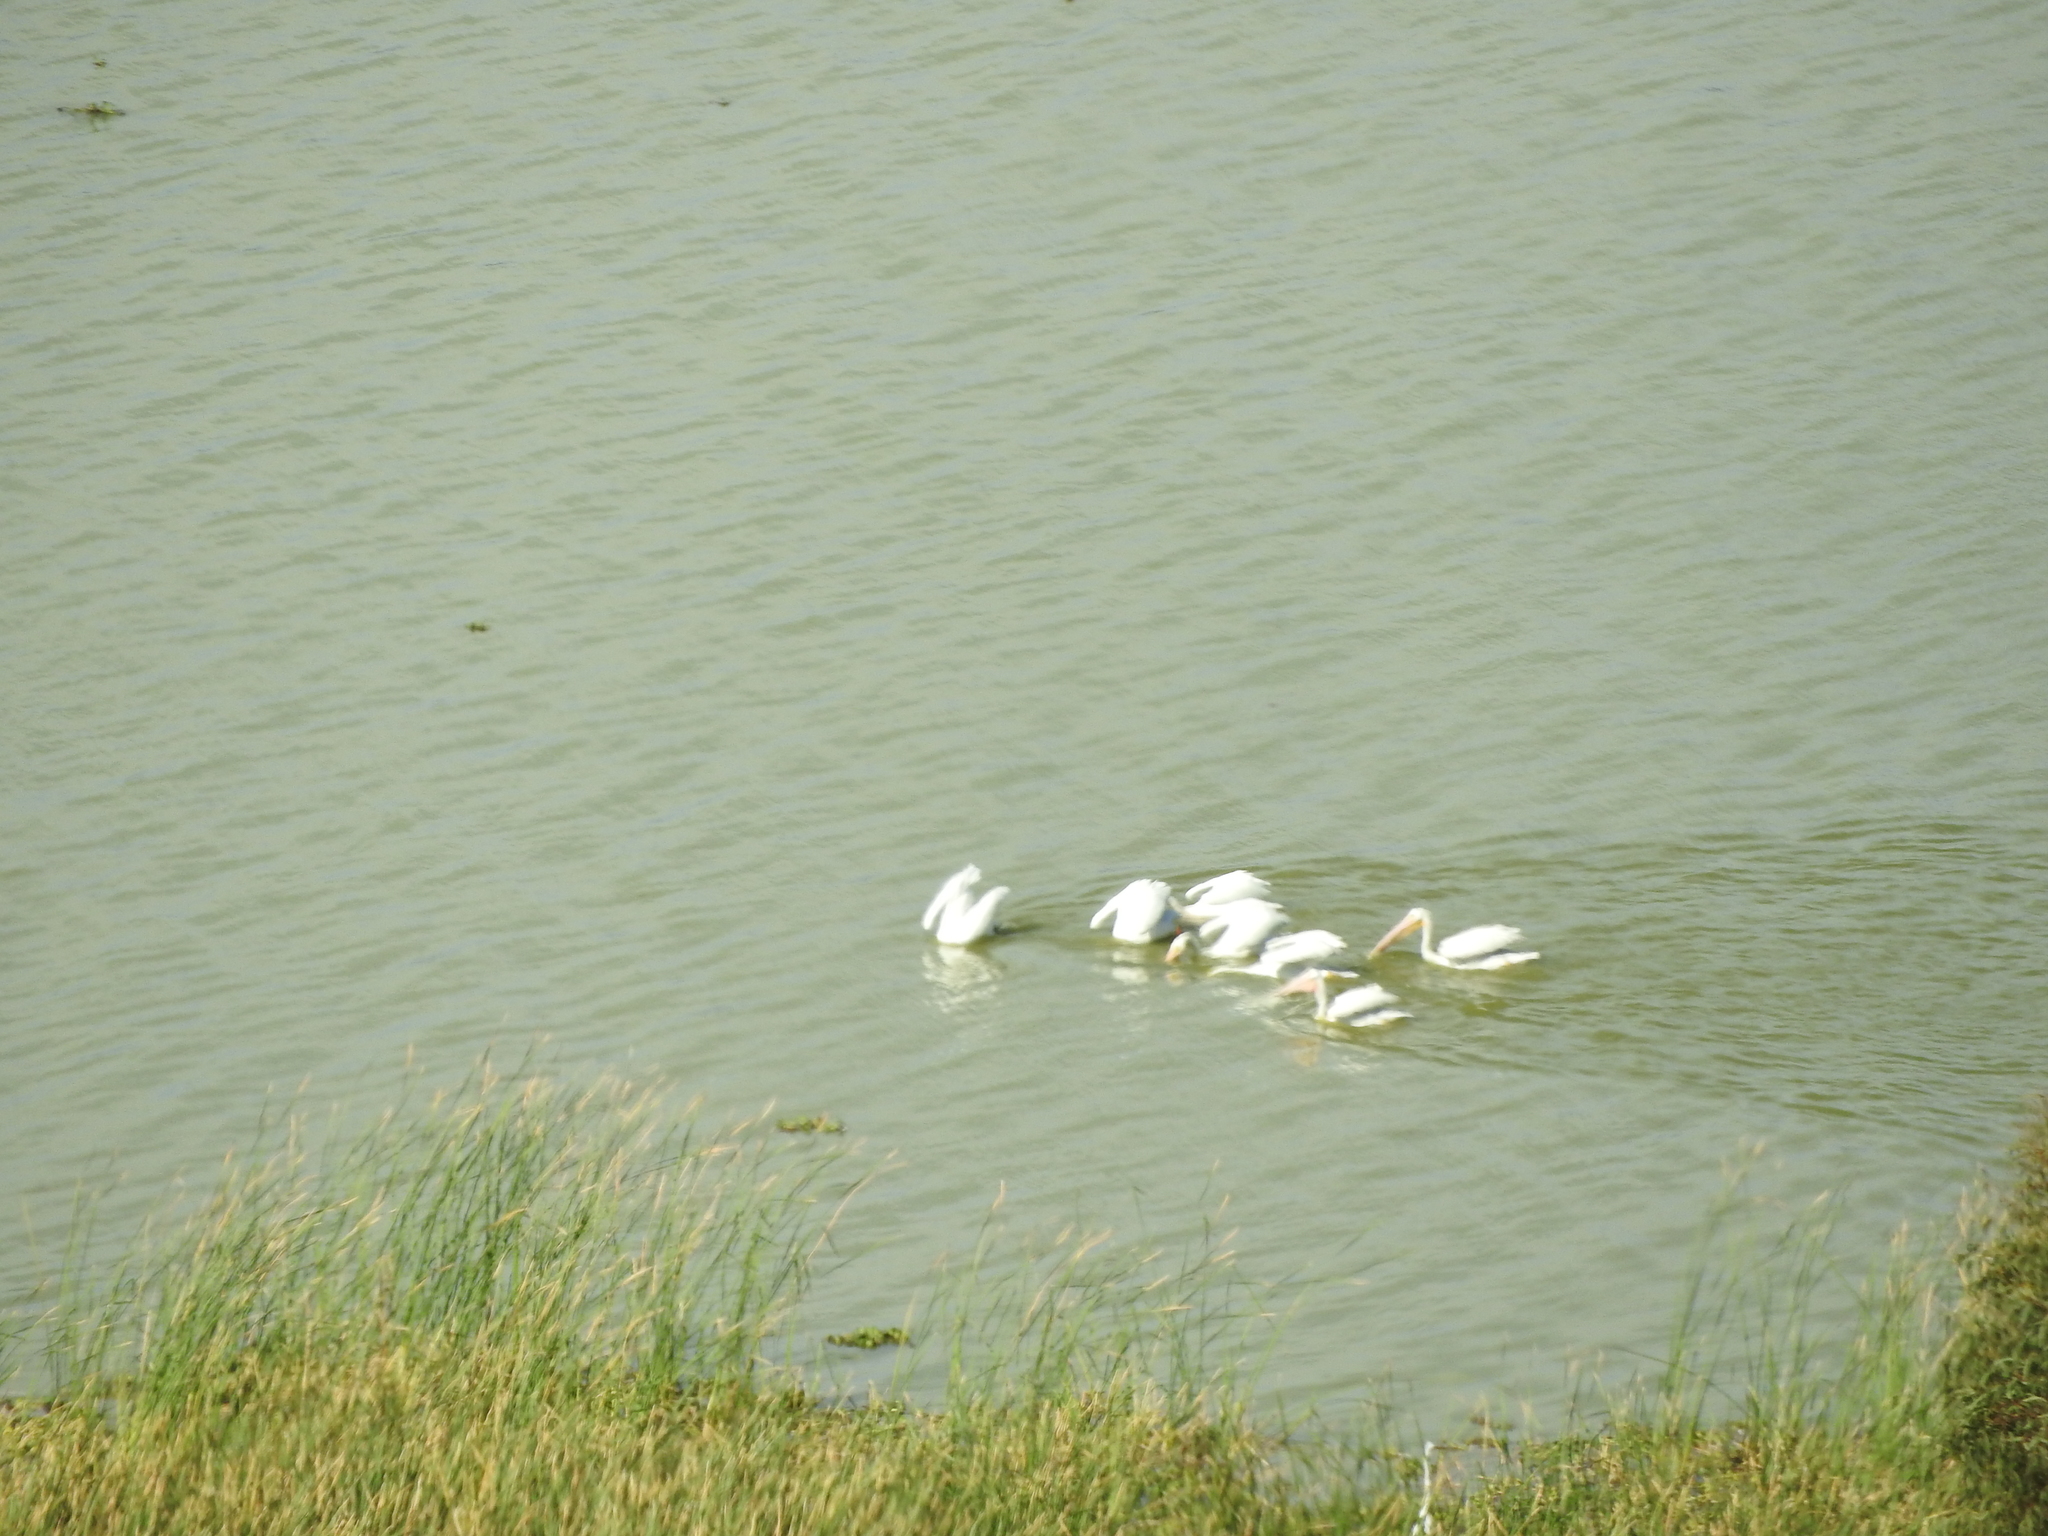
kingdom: Animalia
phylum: Chordata
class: Aves
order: Pelecaniformes
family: Pelecanidae
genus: Pelecanus
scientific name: Pelecanus erythrorhynchos
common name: American white pelican
